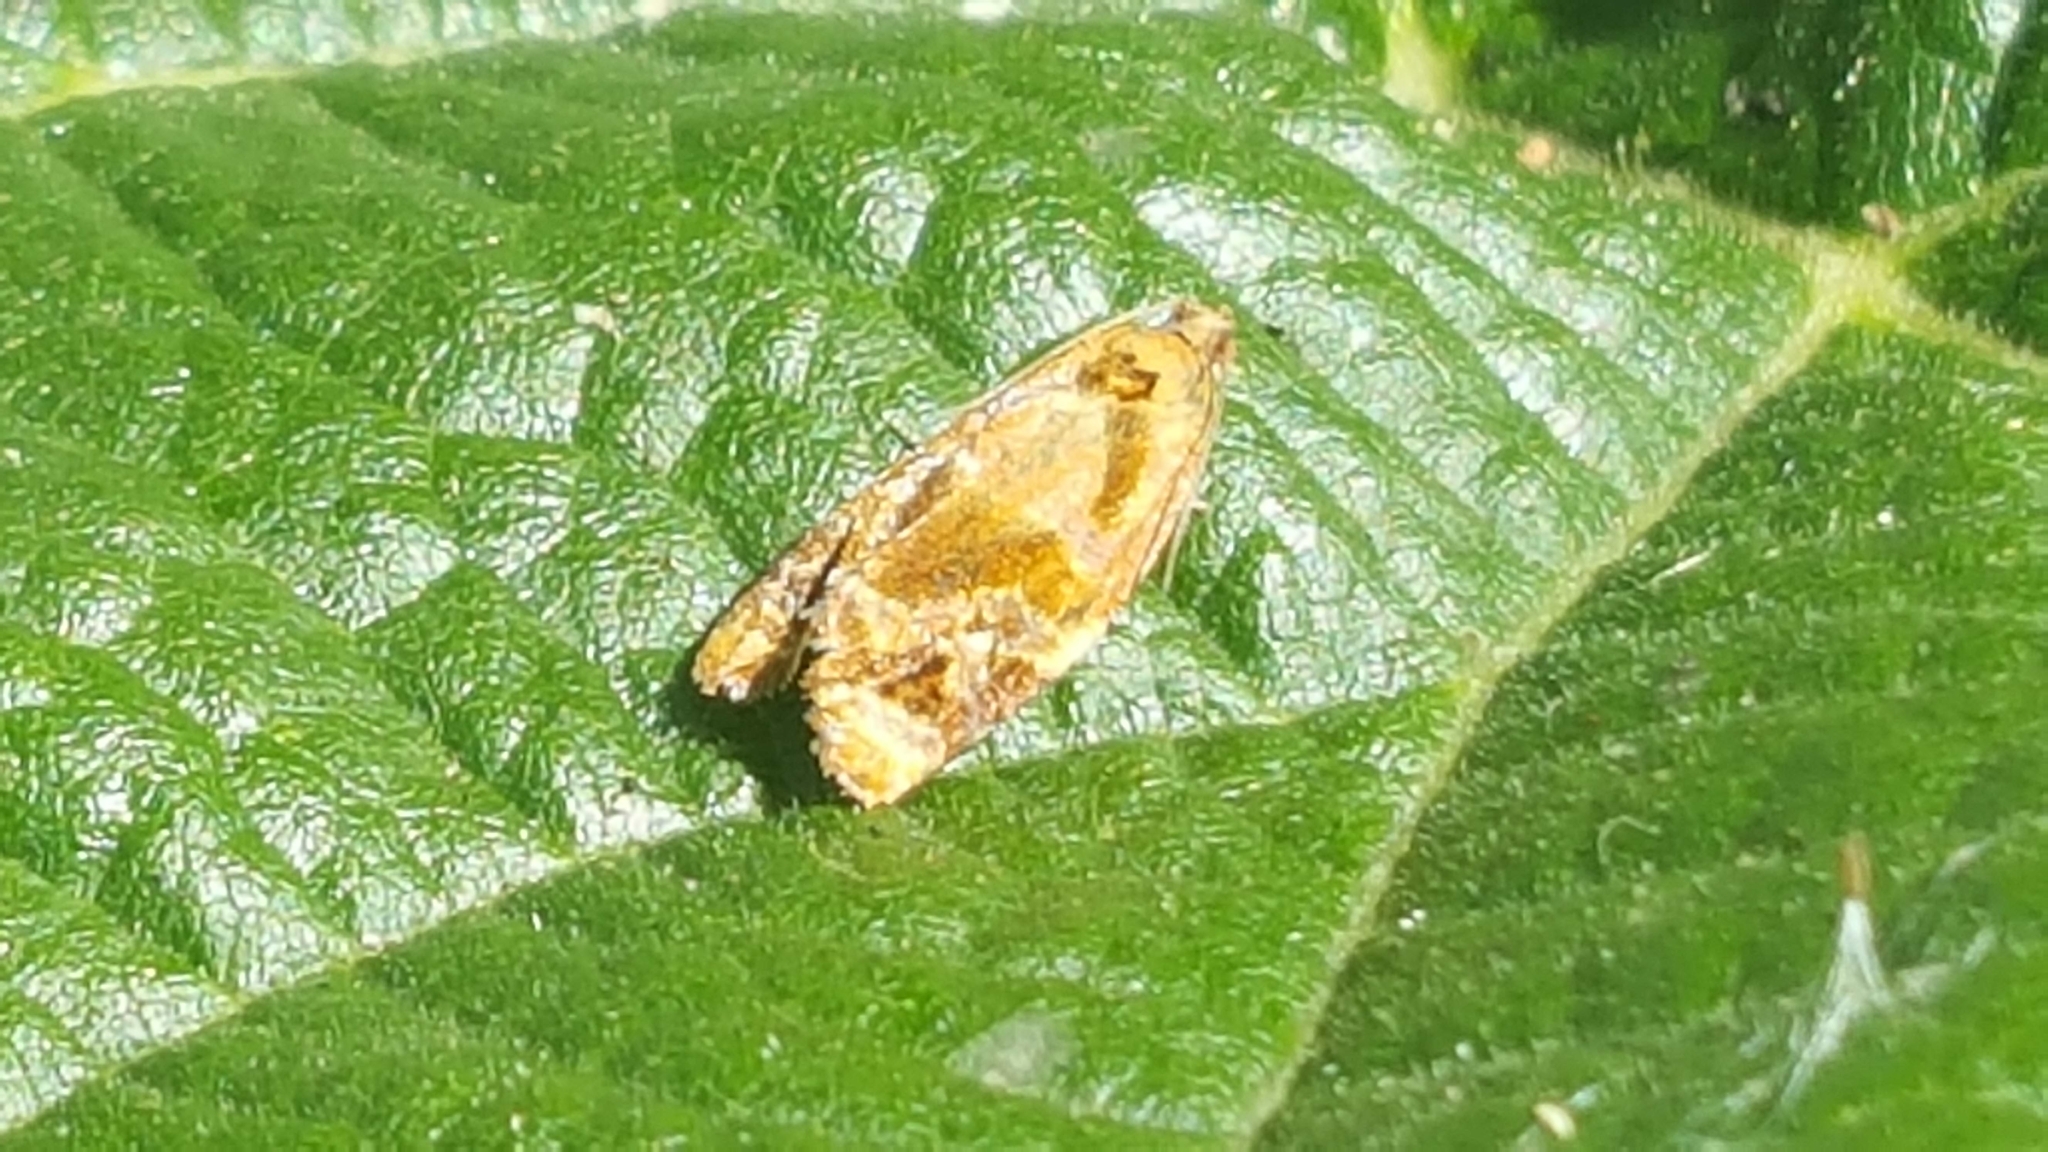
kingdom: Animalia
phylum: Arthropoda
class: Insecta
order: Lepidoptera
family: Tortricidae
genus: Ditula
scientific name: Ditula angustiorana
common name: Red-barred tortrix
